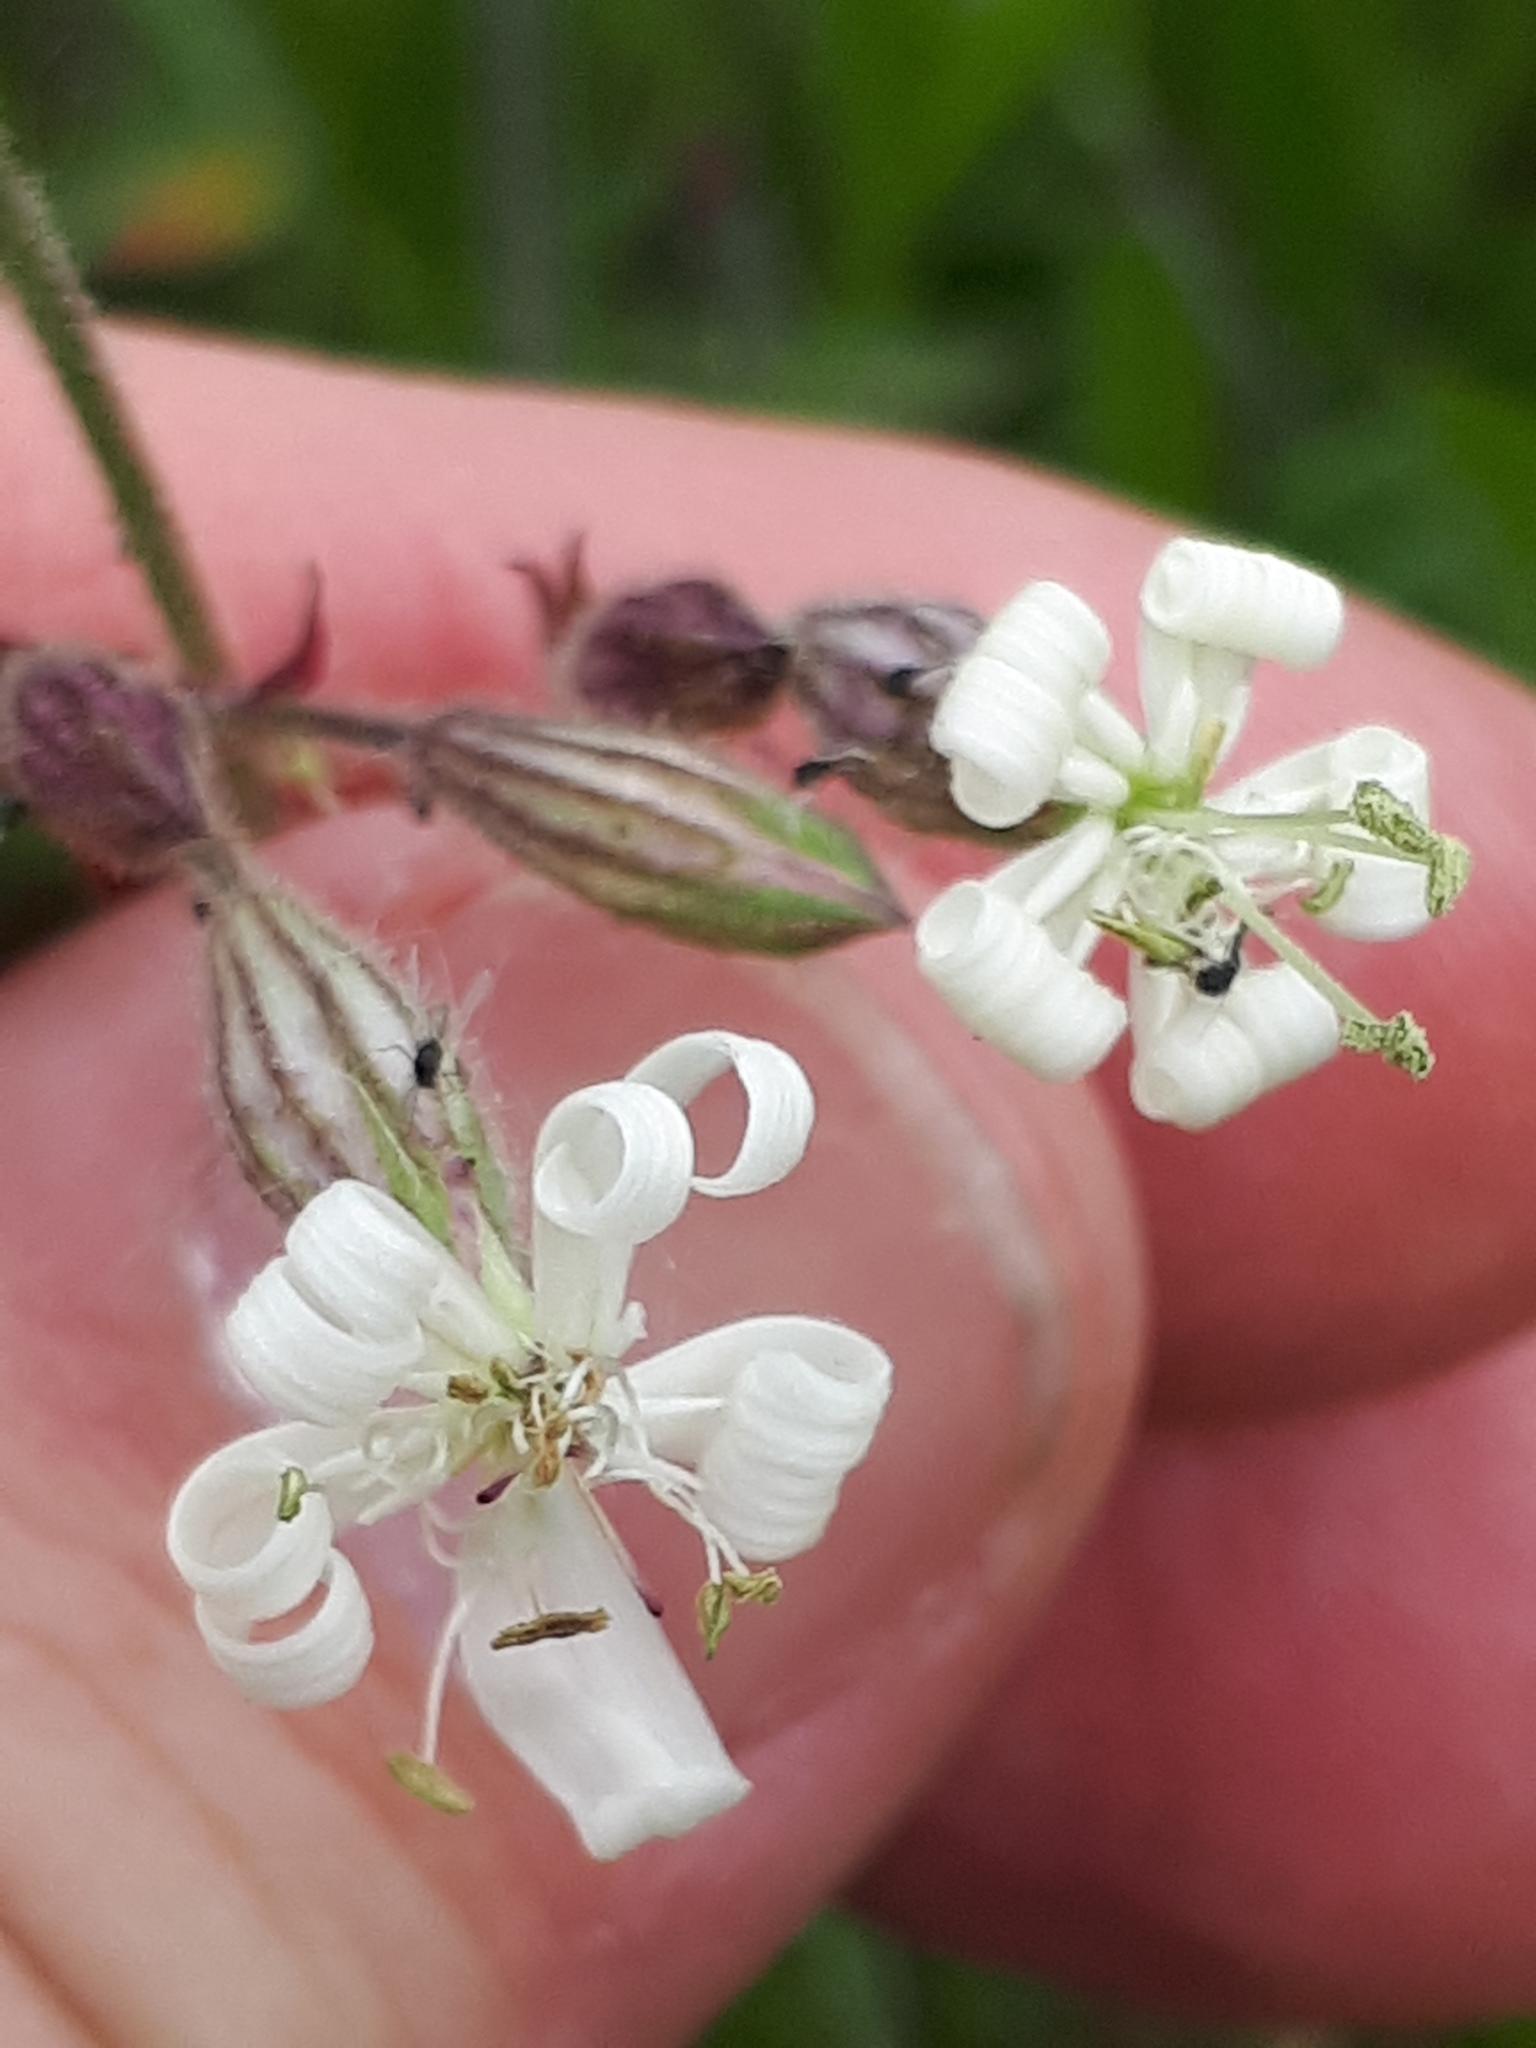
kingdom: Plantae
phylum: Tracheophyta
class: Magnoliopsida
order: Caryophyllales
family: Caryophyllaceae
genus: Silene
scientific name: Silene nutans
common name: Nottingham catchfly
